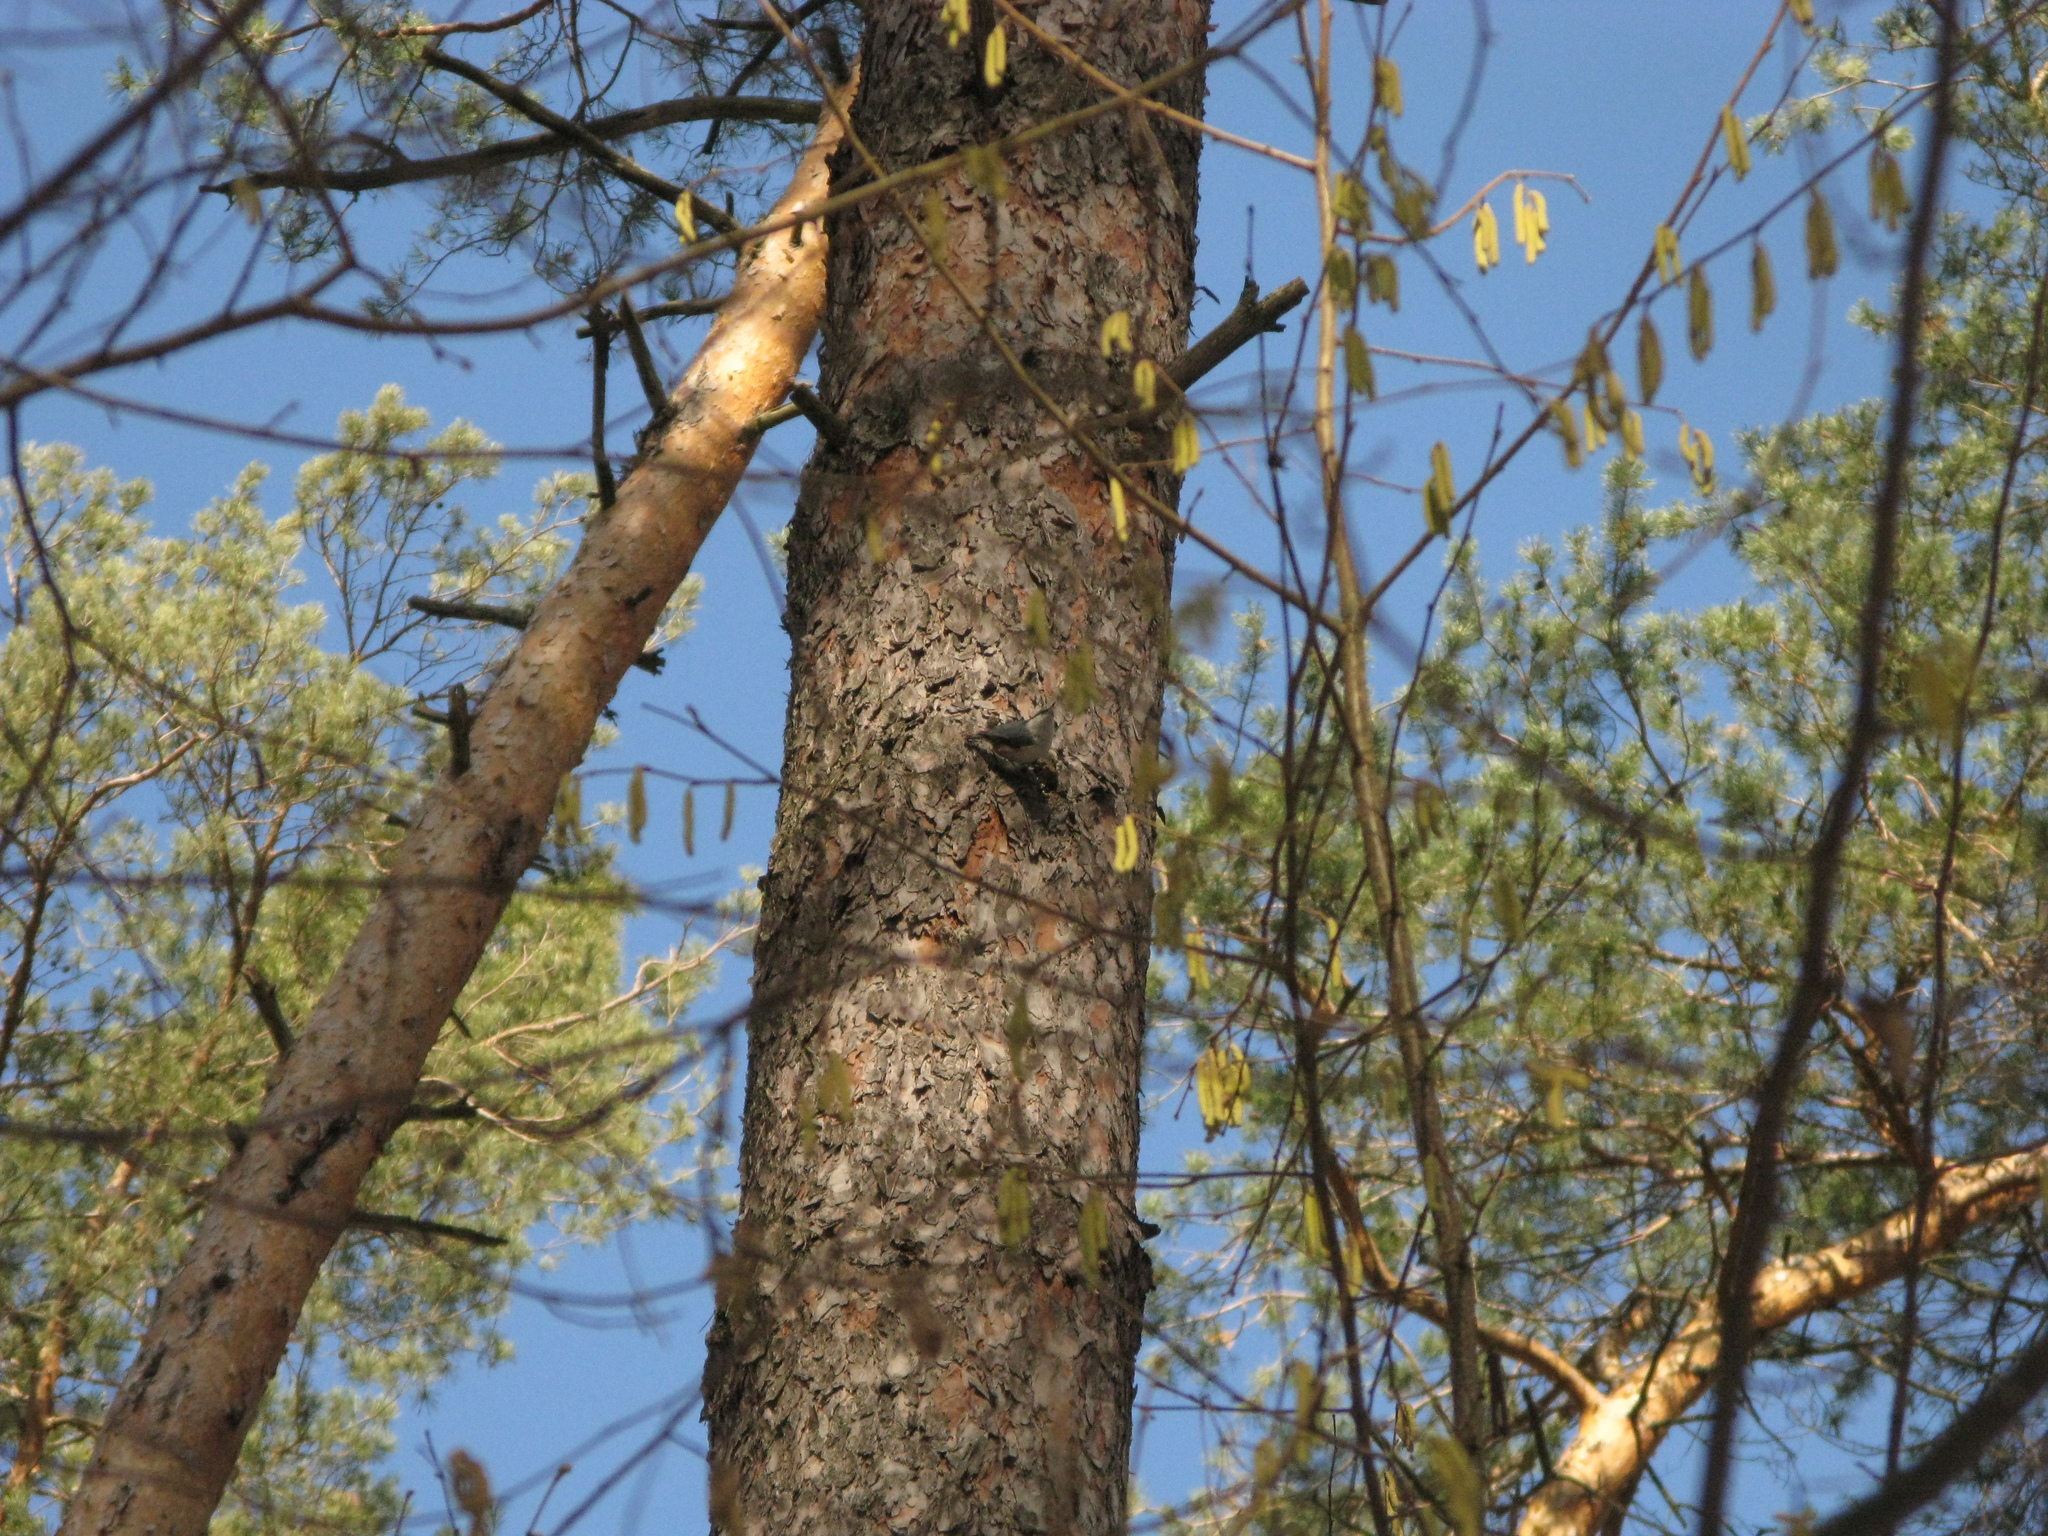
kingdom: Animalia
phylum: Chordata
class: Aves
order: Passeriformes
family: Sittidae
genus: Sitta
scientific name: Sitta europaea
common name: Eurasian nuthatch
